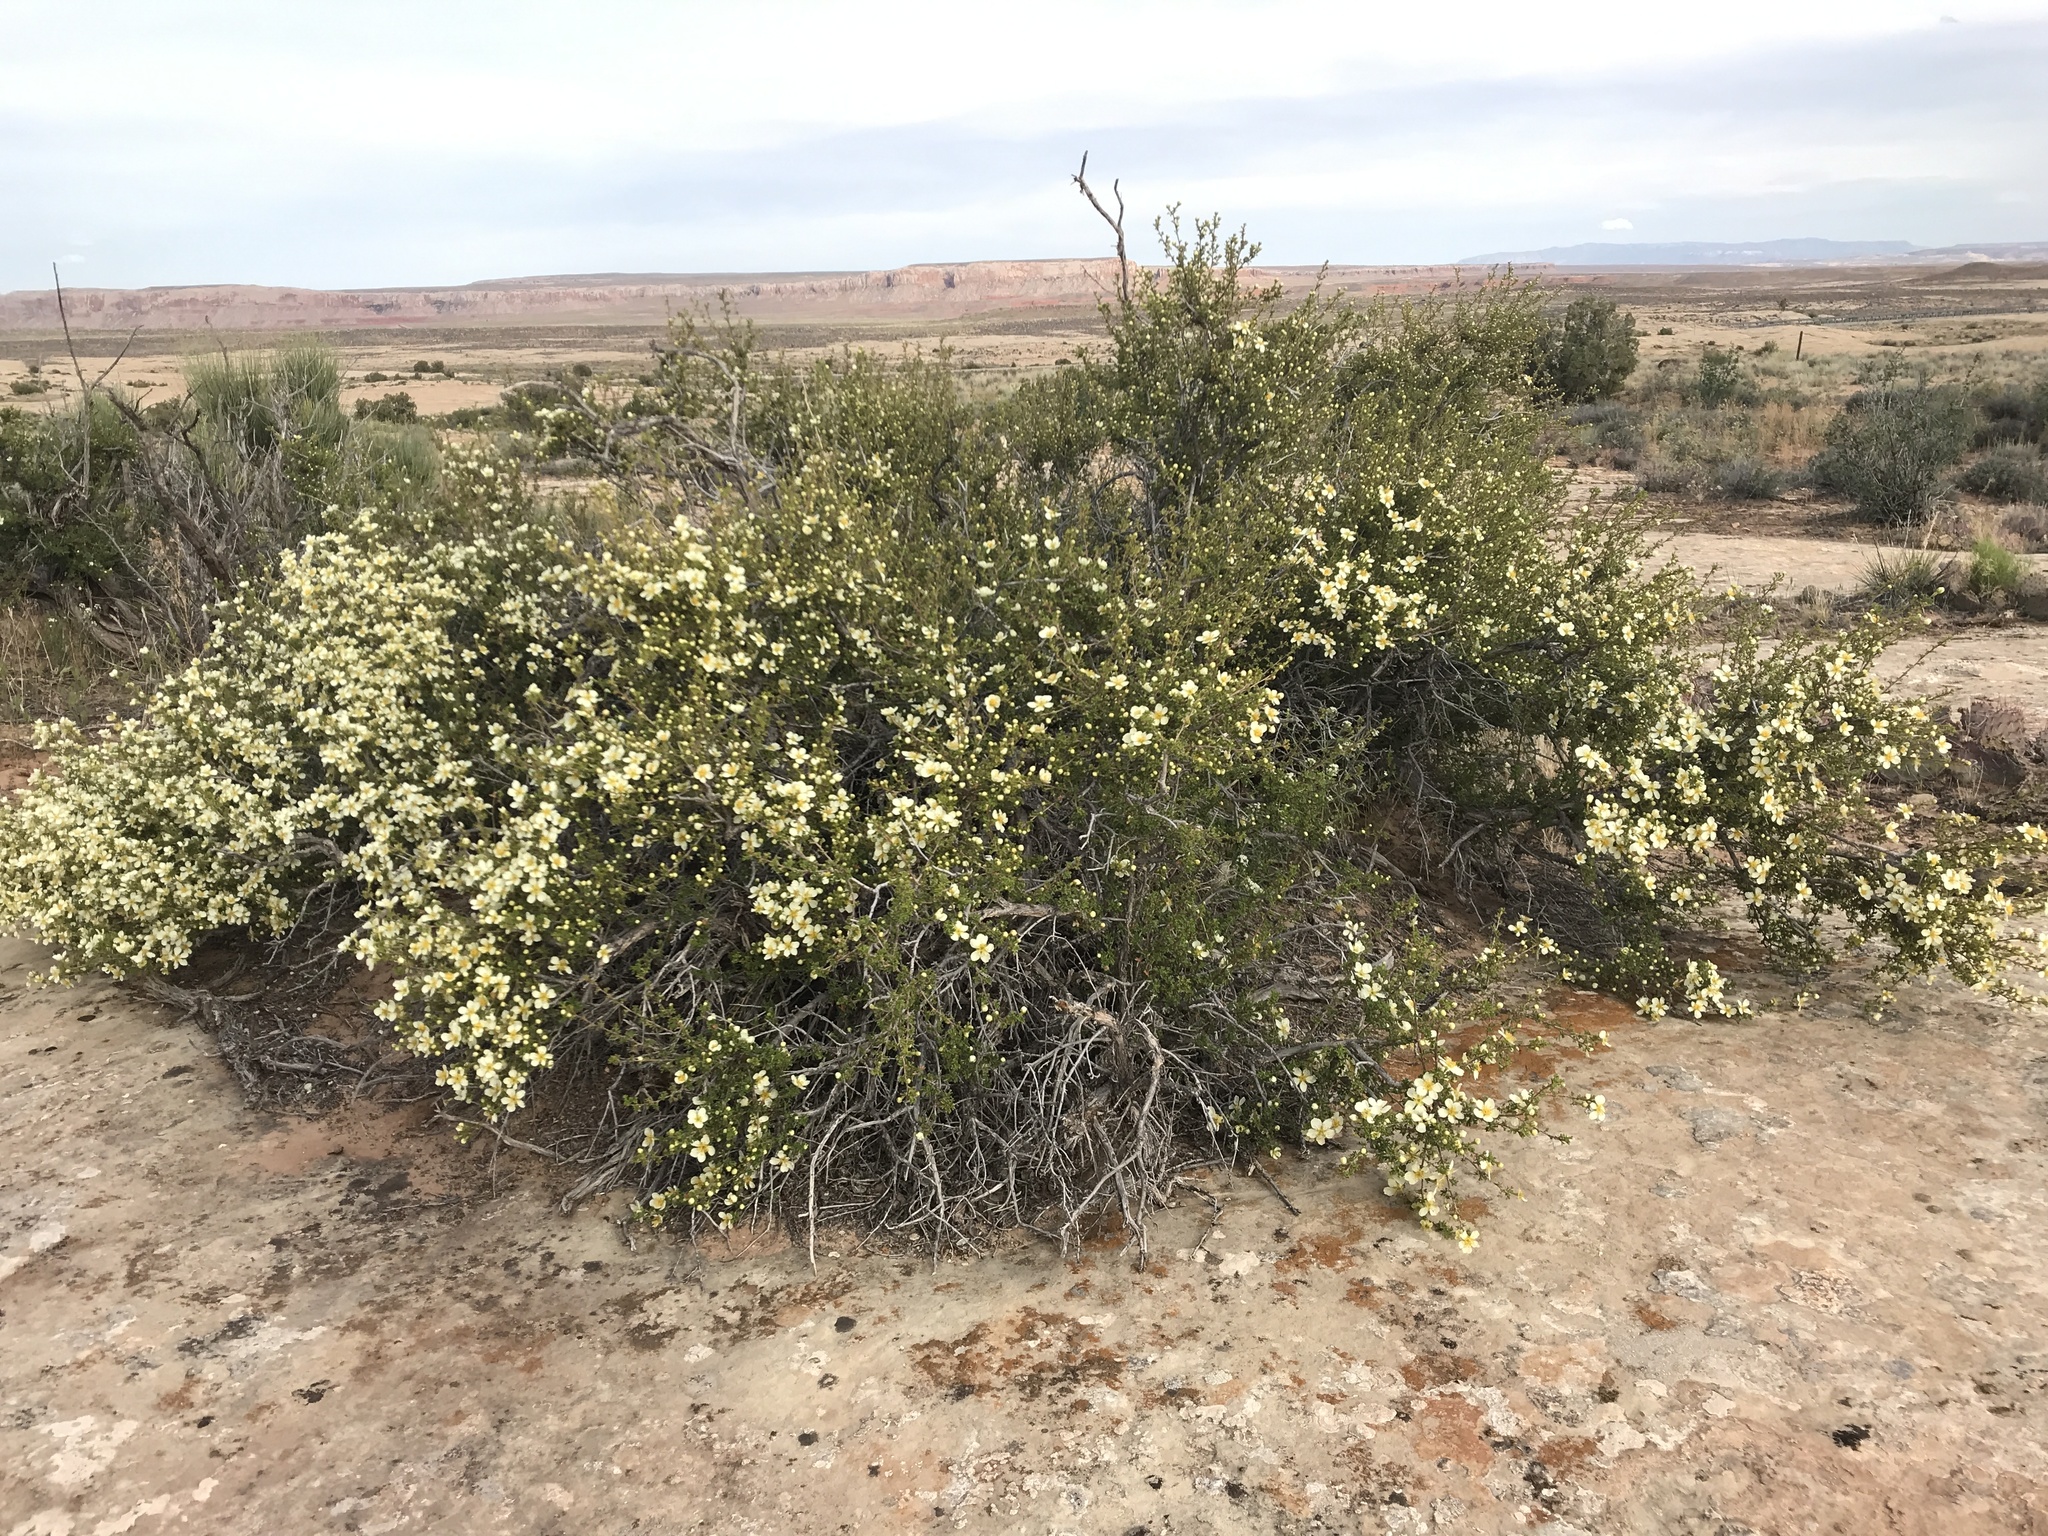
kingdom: Plantae
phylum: Tracheophyta
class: Magnoliopsida
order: Rosales
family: Rosaceae
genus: Purshia
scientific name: Purshia stansburiana
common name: Stansbury's cliffrose
